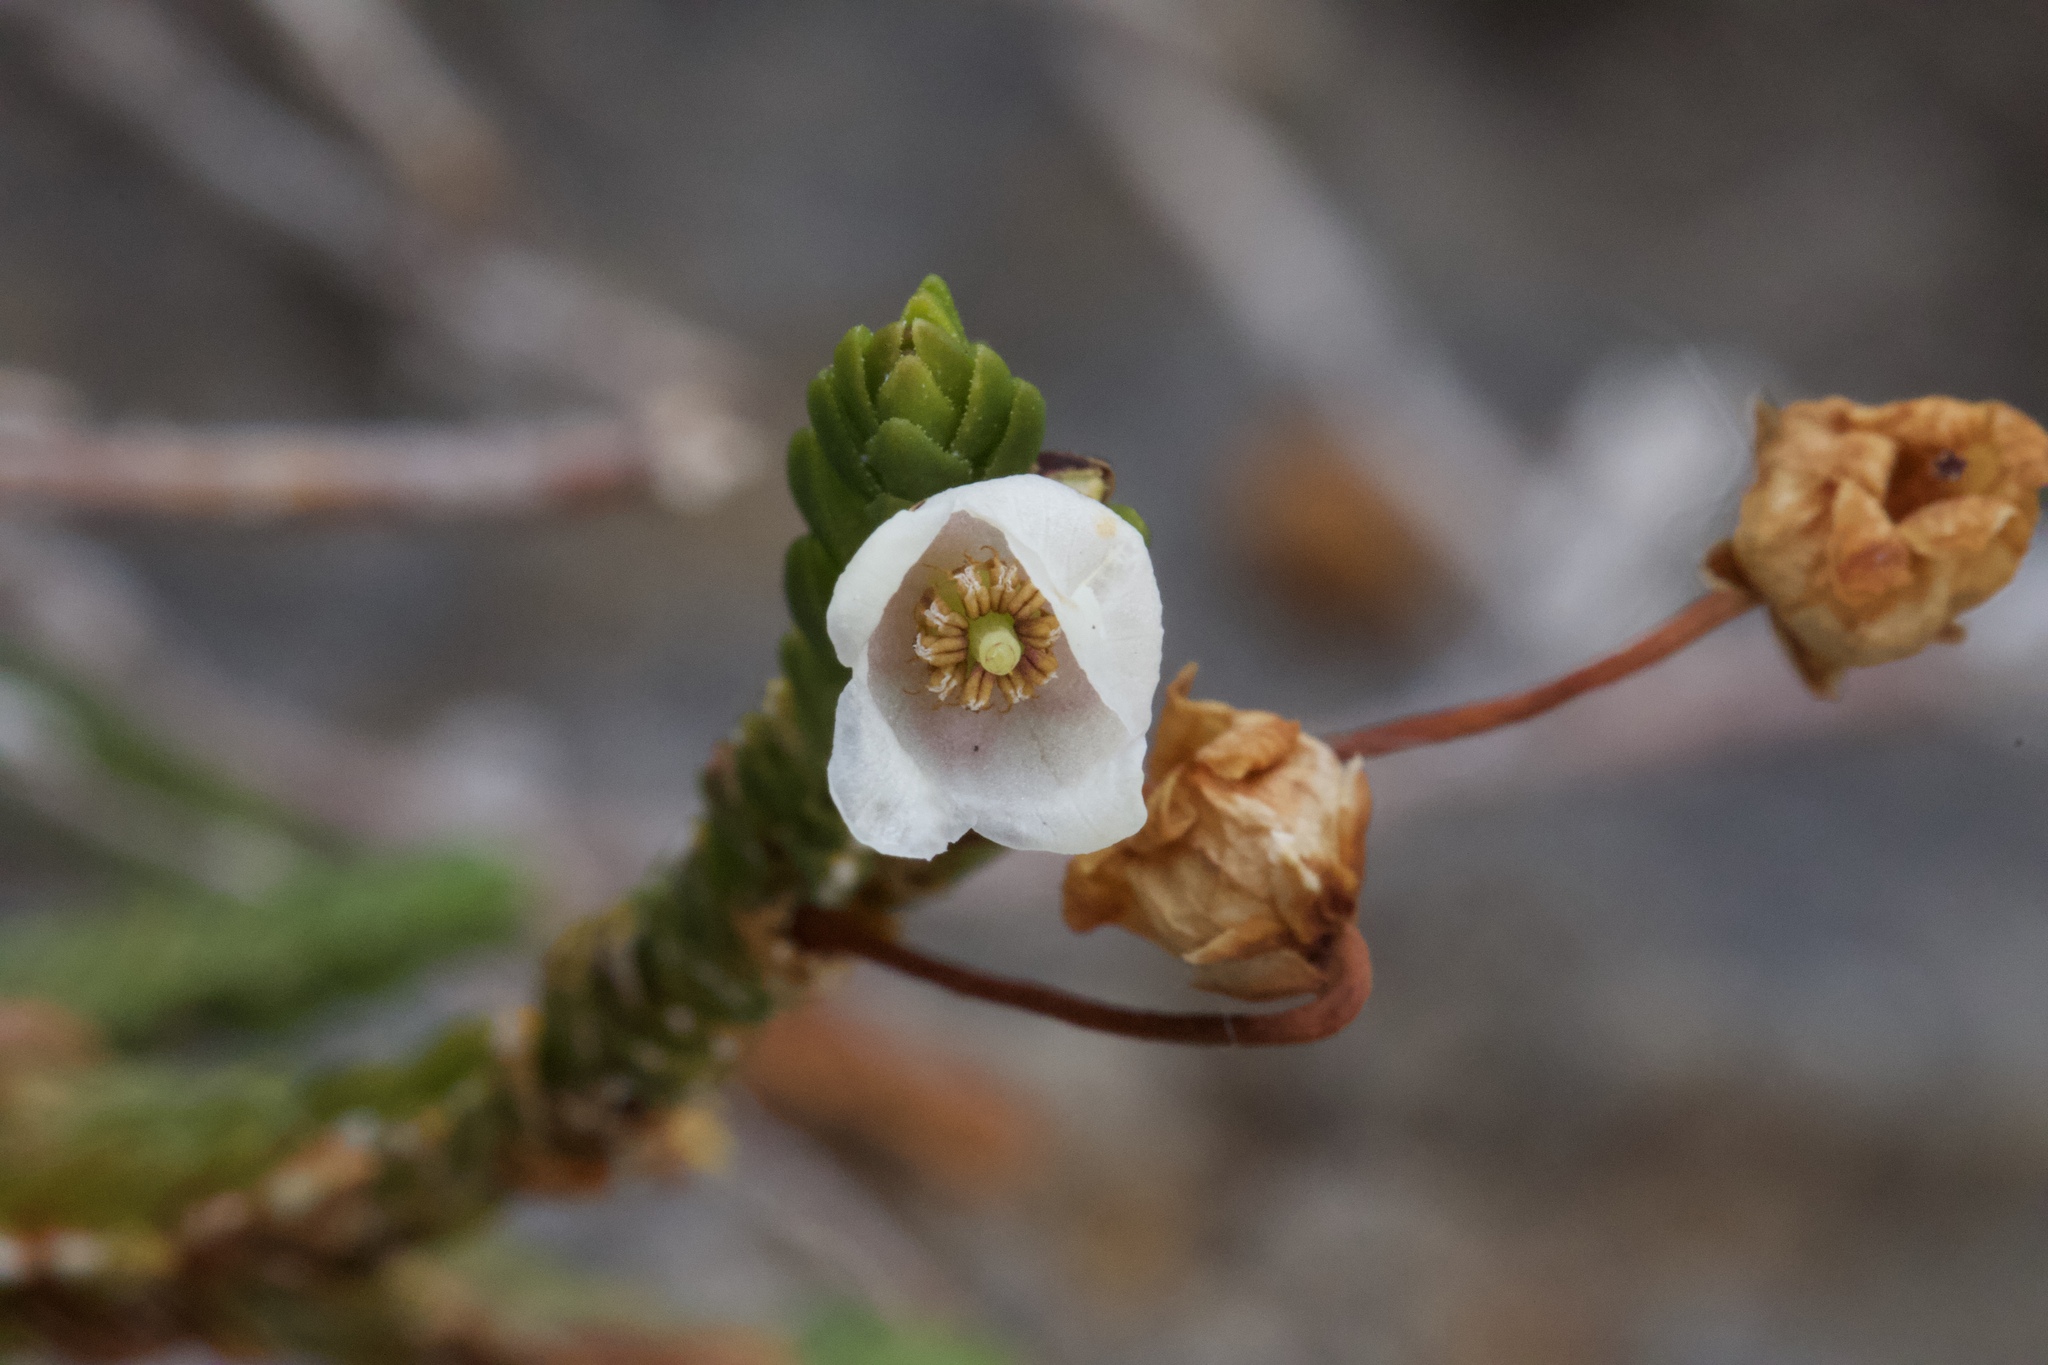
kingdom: Plantae
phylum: Tracheophyta
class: Magnoliopsida
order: Ericales
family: Ericaceae
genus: Cassiope
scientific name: Cassiope mertensiana
